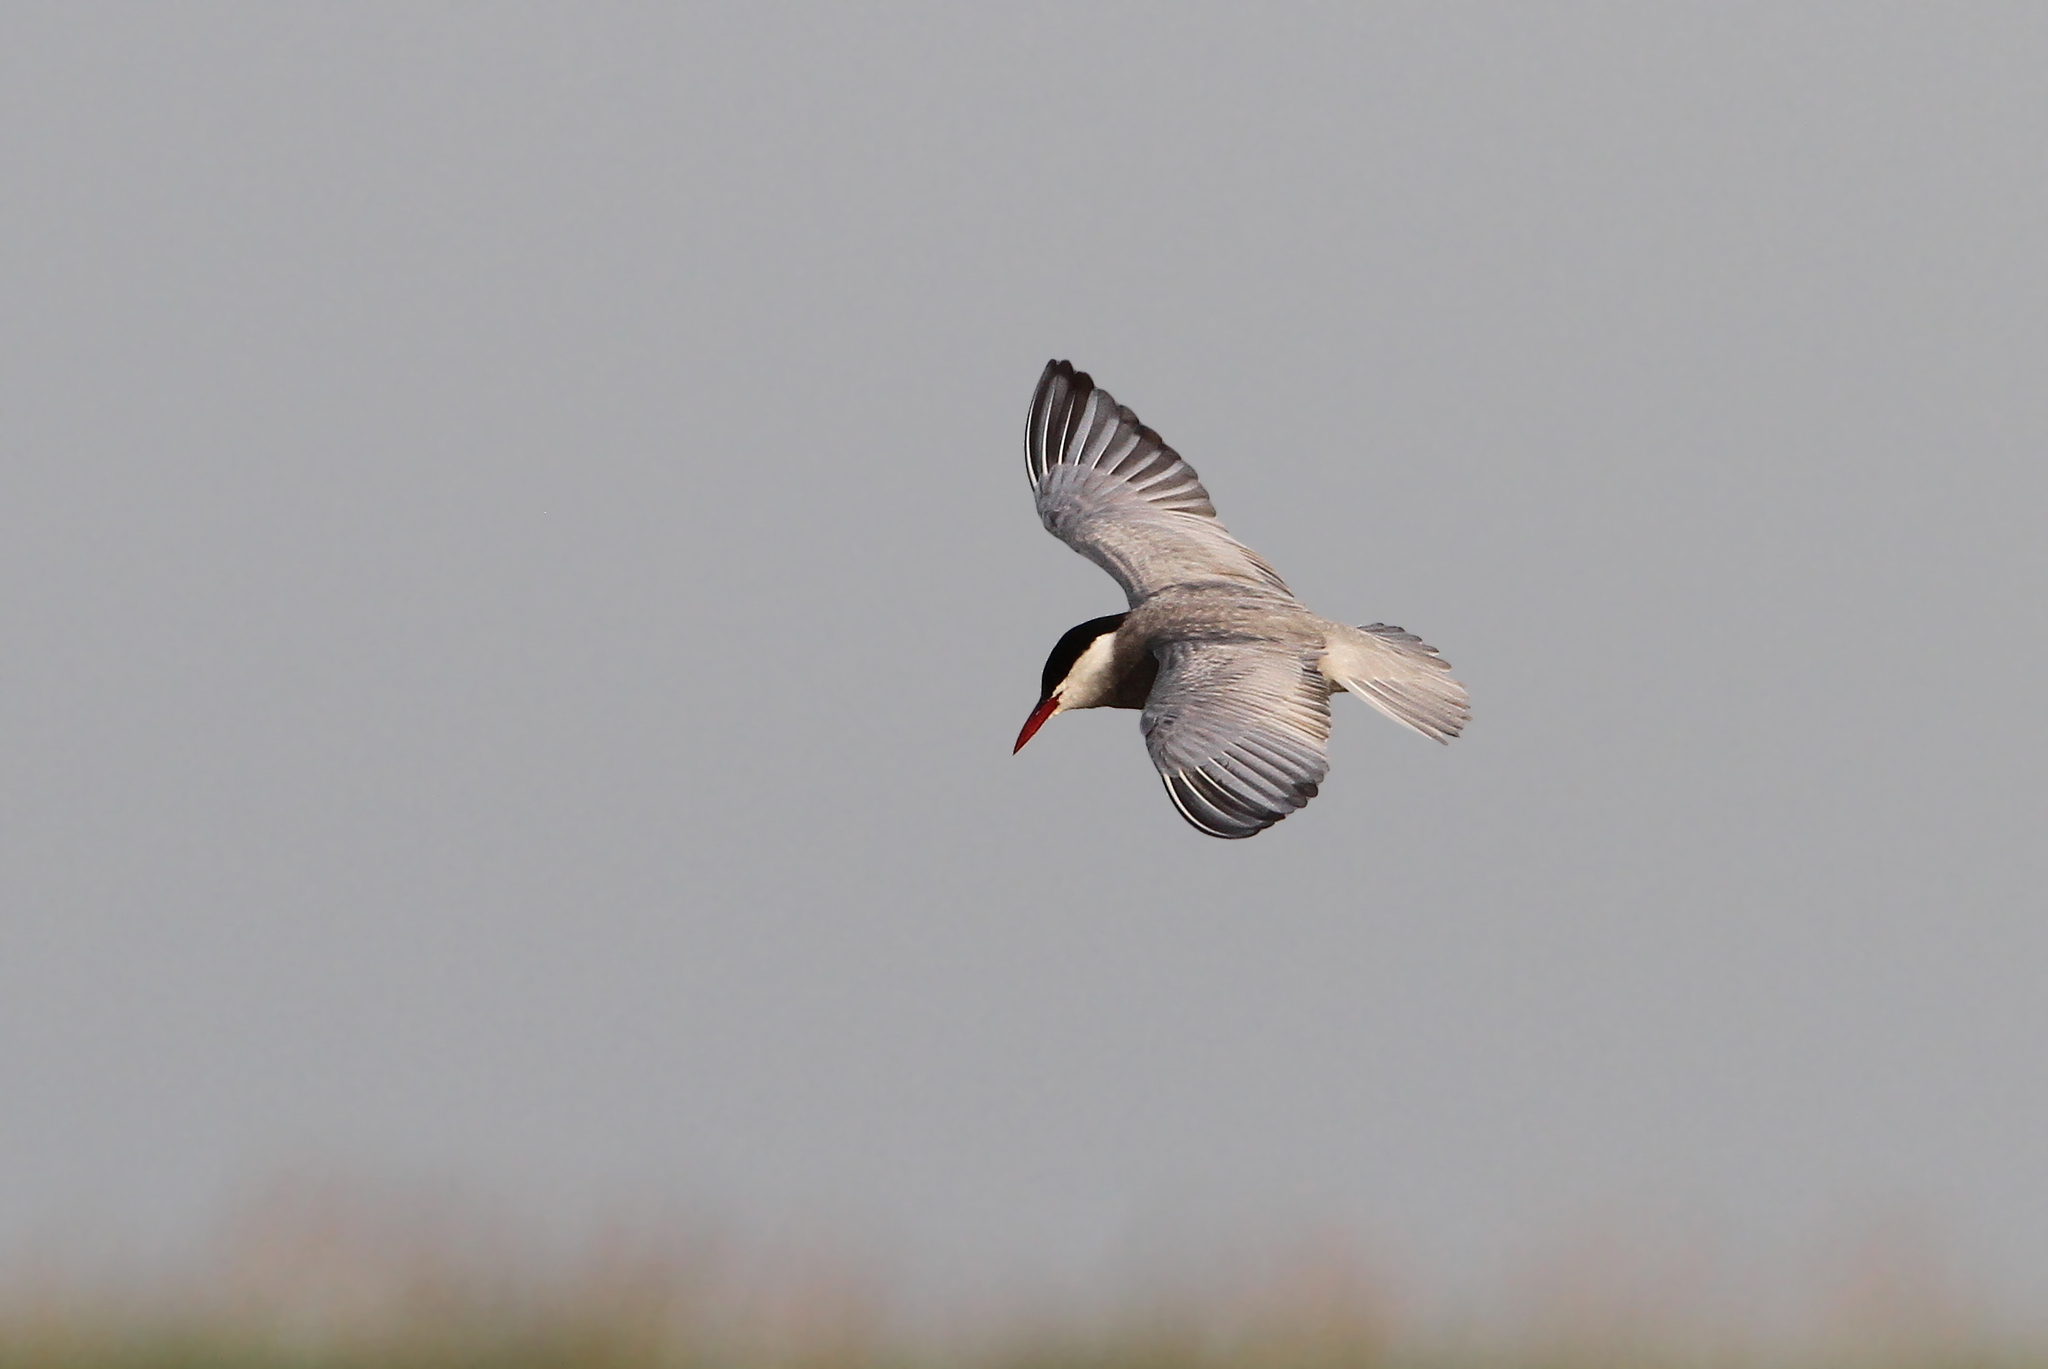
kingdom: Animalia
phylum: Chordata
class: Aves
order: Charadriiformes
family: Laridae
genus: Chlidonias
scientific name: Chlidonias hybrida
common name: Whiskered tern
